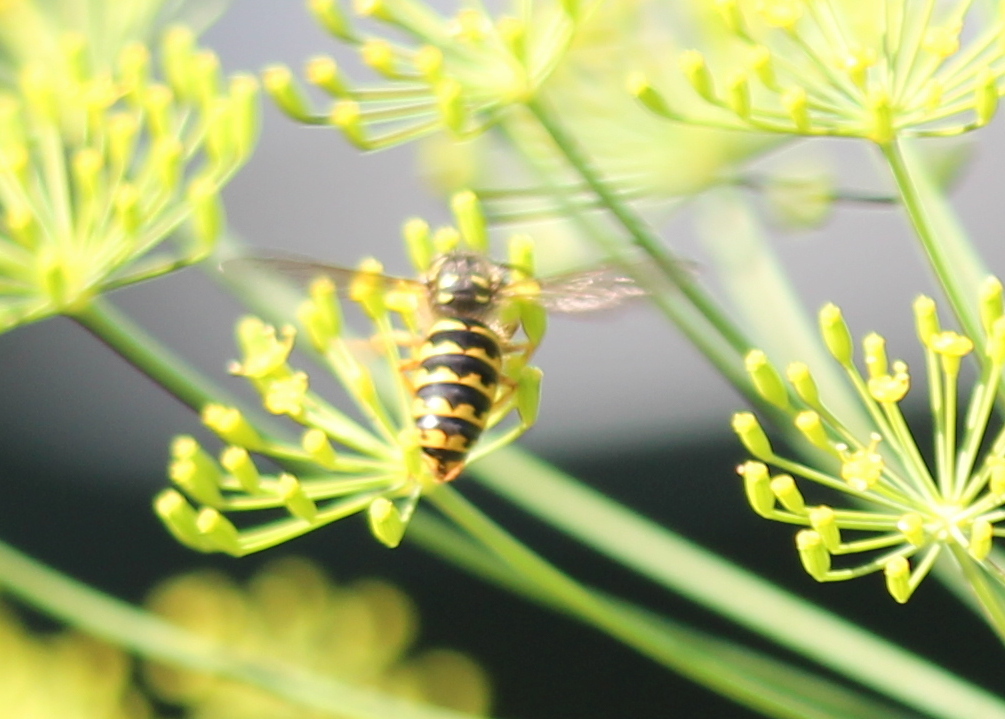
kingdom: Animalia
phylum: Arthropoda
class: Insecta
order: Hymenoptera
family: Vespidae
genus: Dolichovespula
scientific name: Dolichovespula arenaria
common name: Aerial yellowjacket
